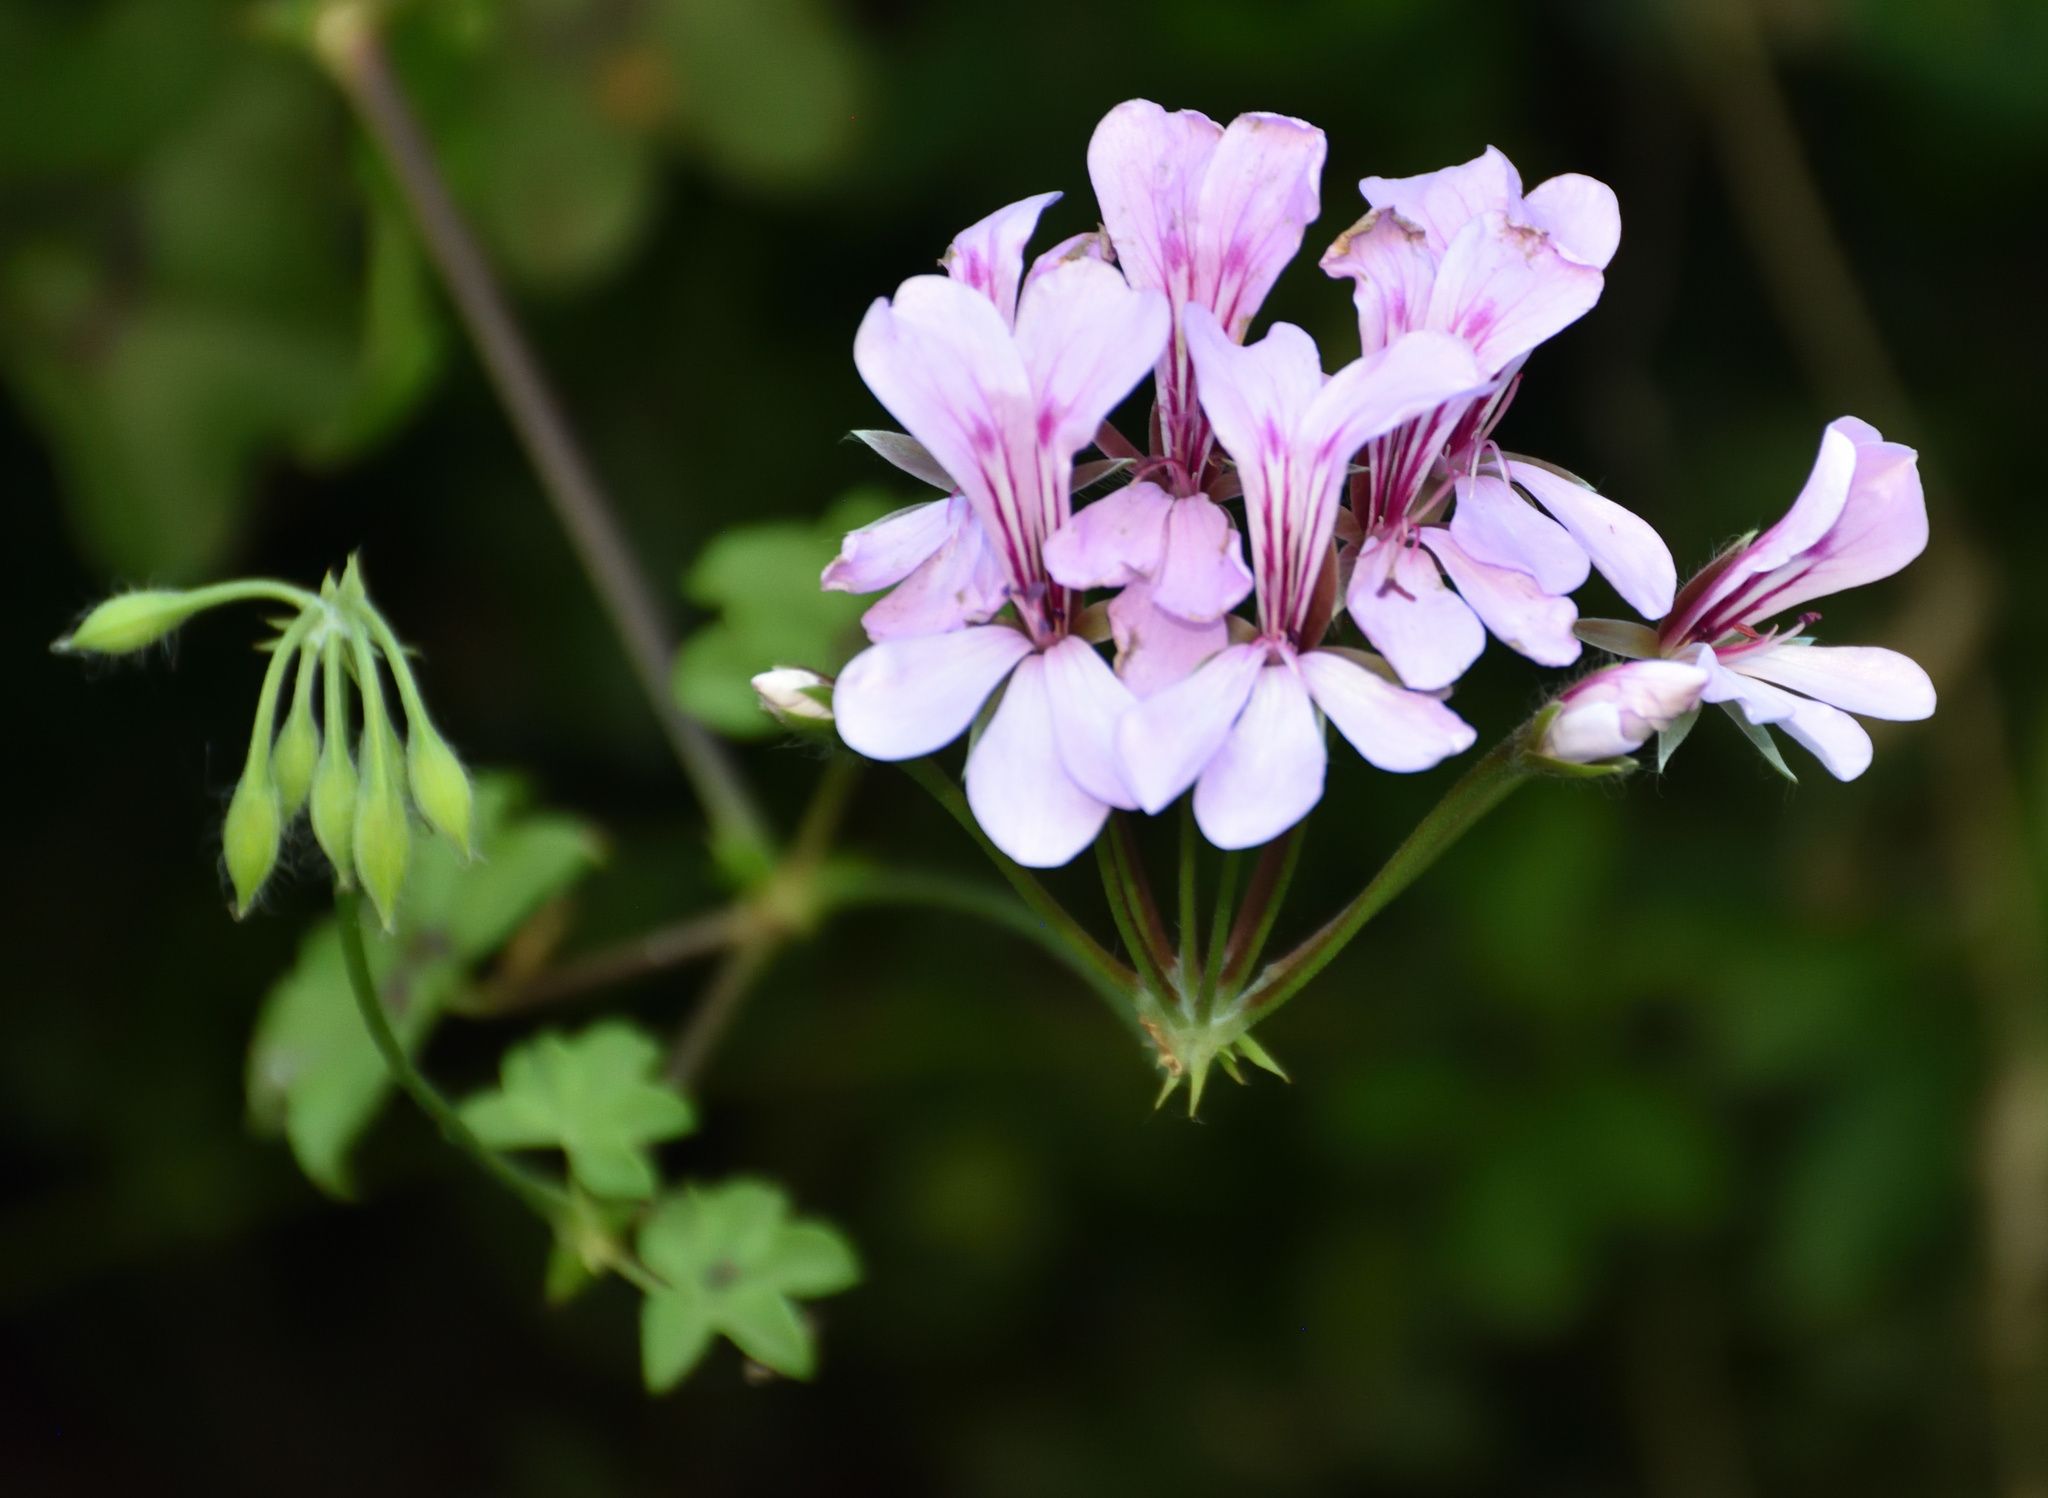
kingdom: Plantae
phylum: Tracheophyta
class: Magnoliopsida
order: Geraniales
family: Geraniaceae
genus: Pelargonium
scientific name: Pelargonium peltatum
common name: Ivyleaf geranium
